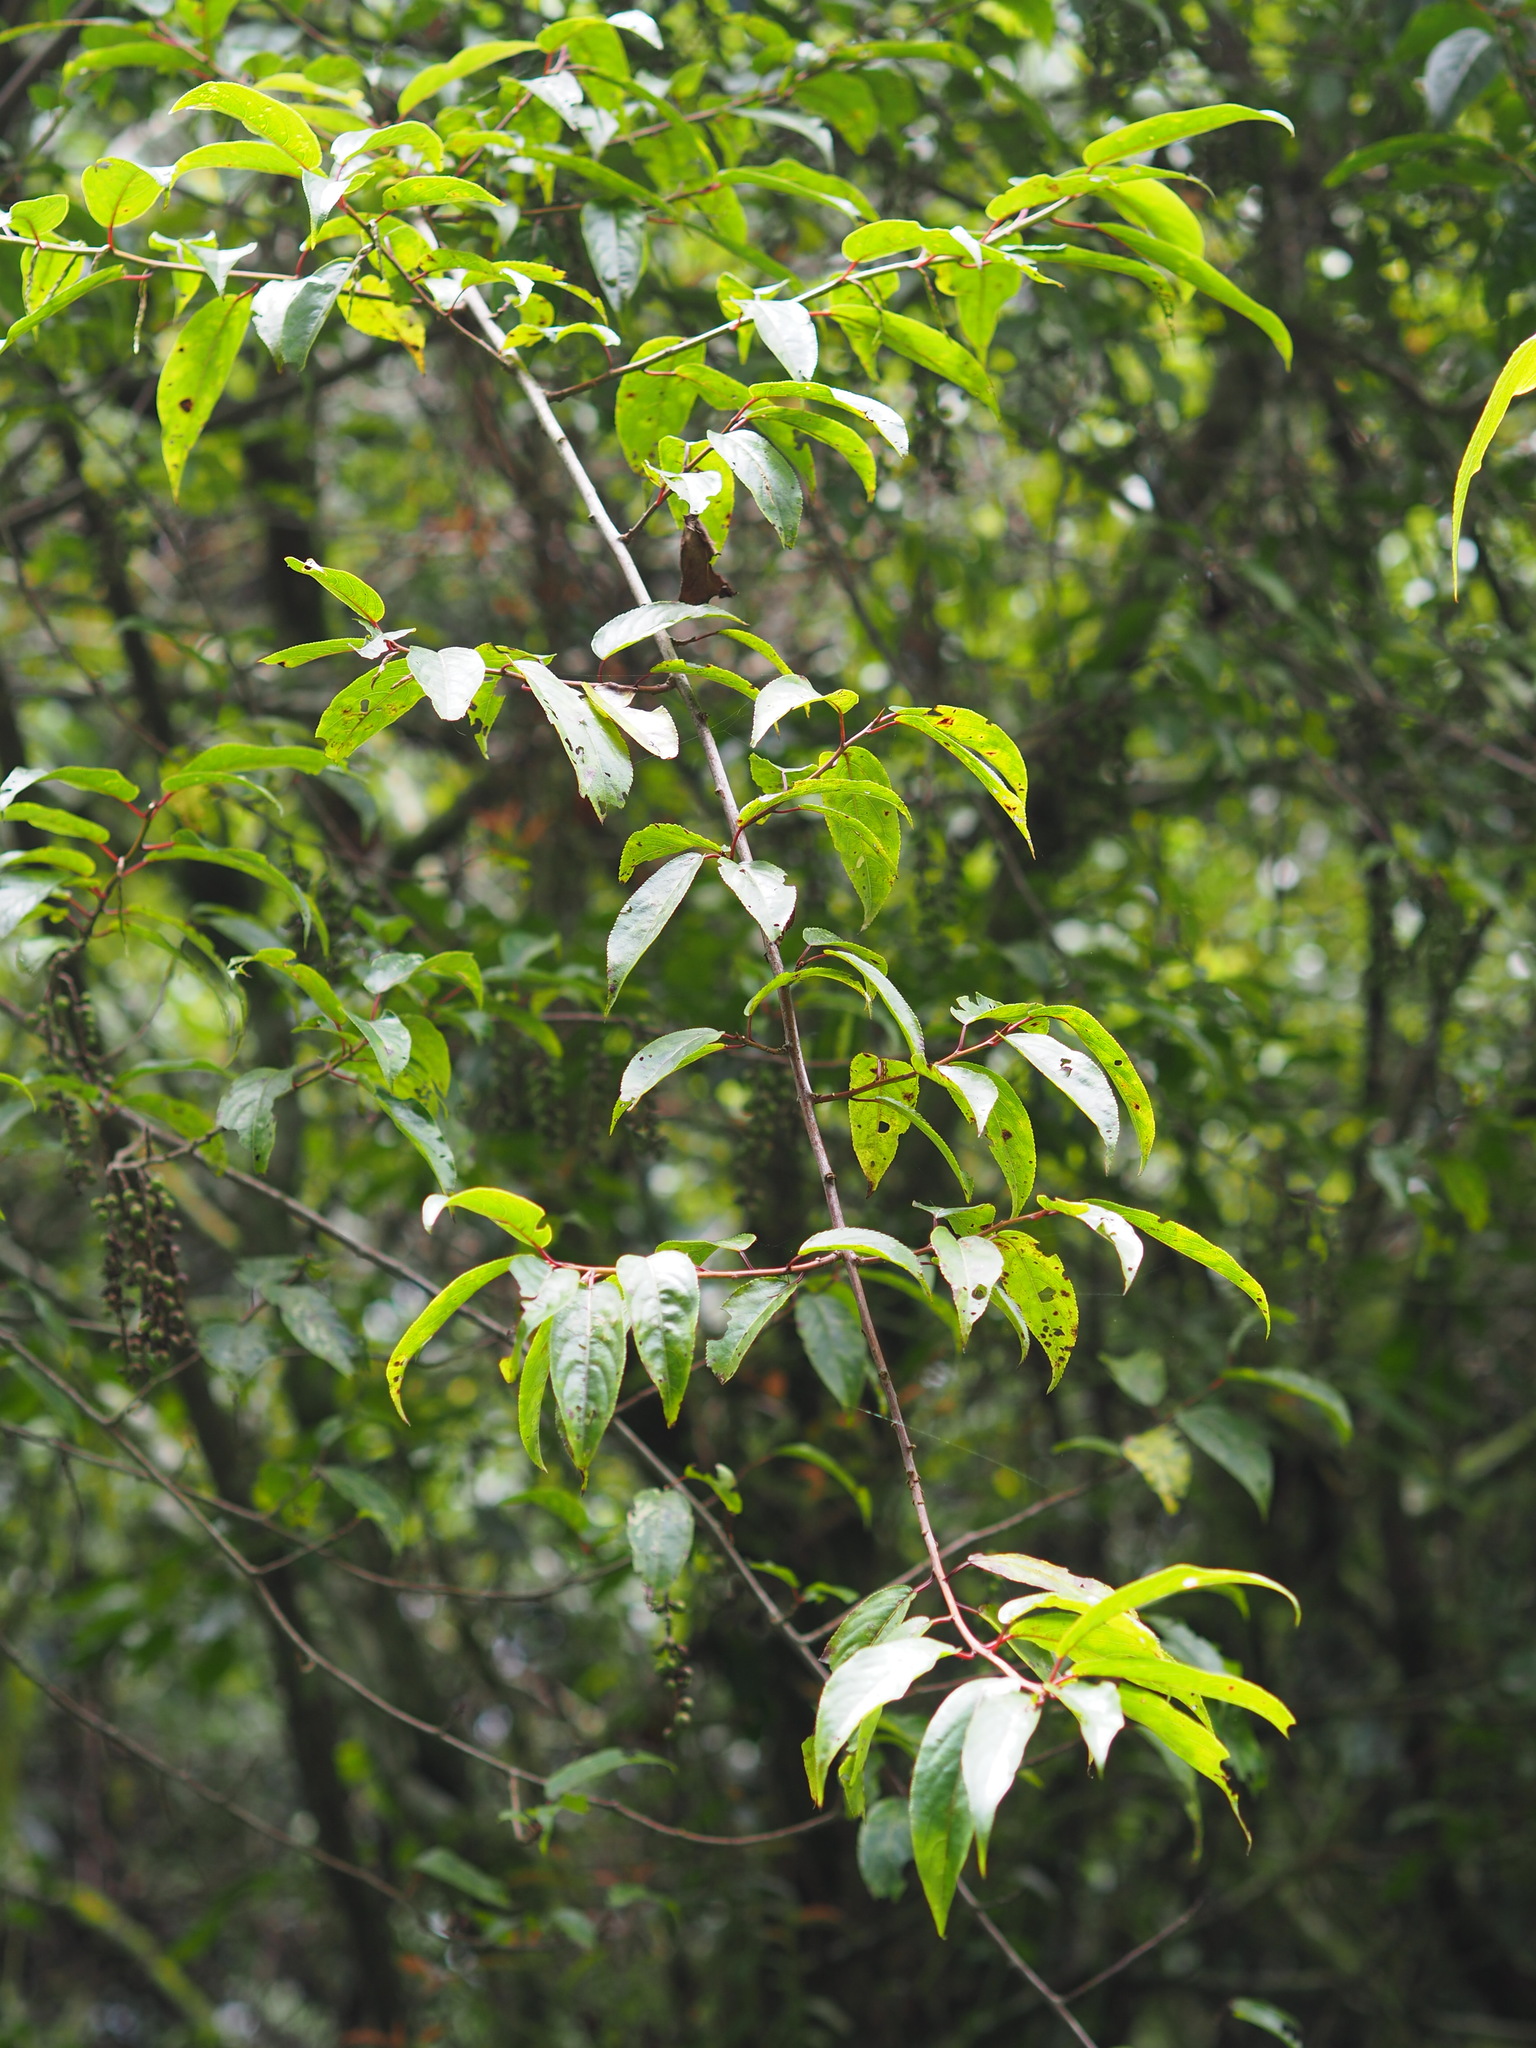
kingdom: Plantae
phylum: Tracheophyta
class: Magnoliopsida
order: Crossosomatales
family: Stachyuraceae
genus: Stachyurus
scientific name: Stachyurus himalaicus
